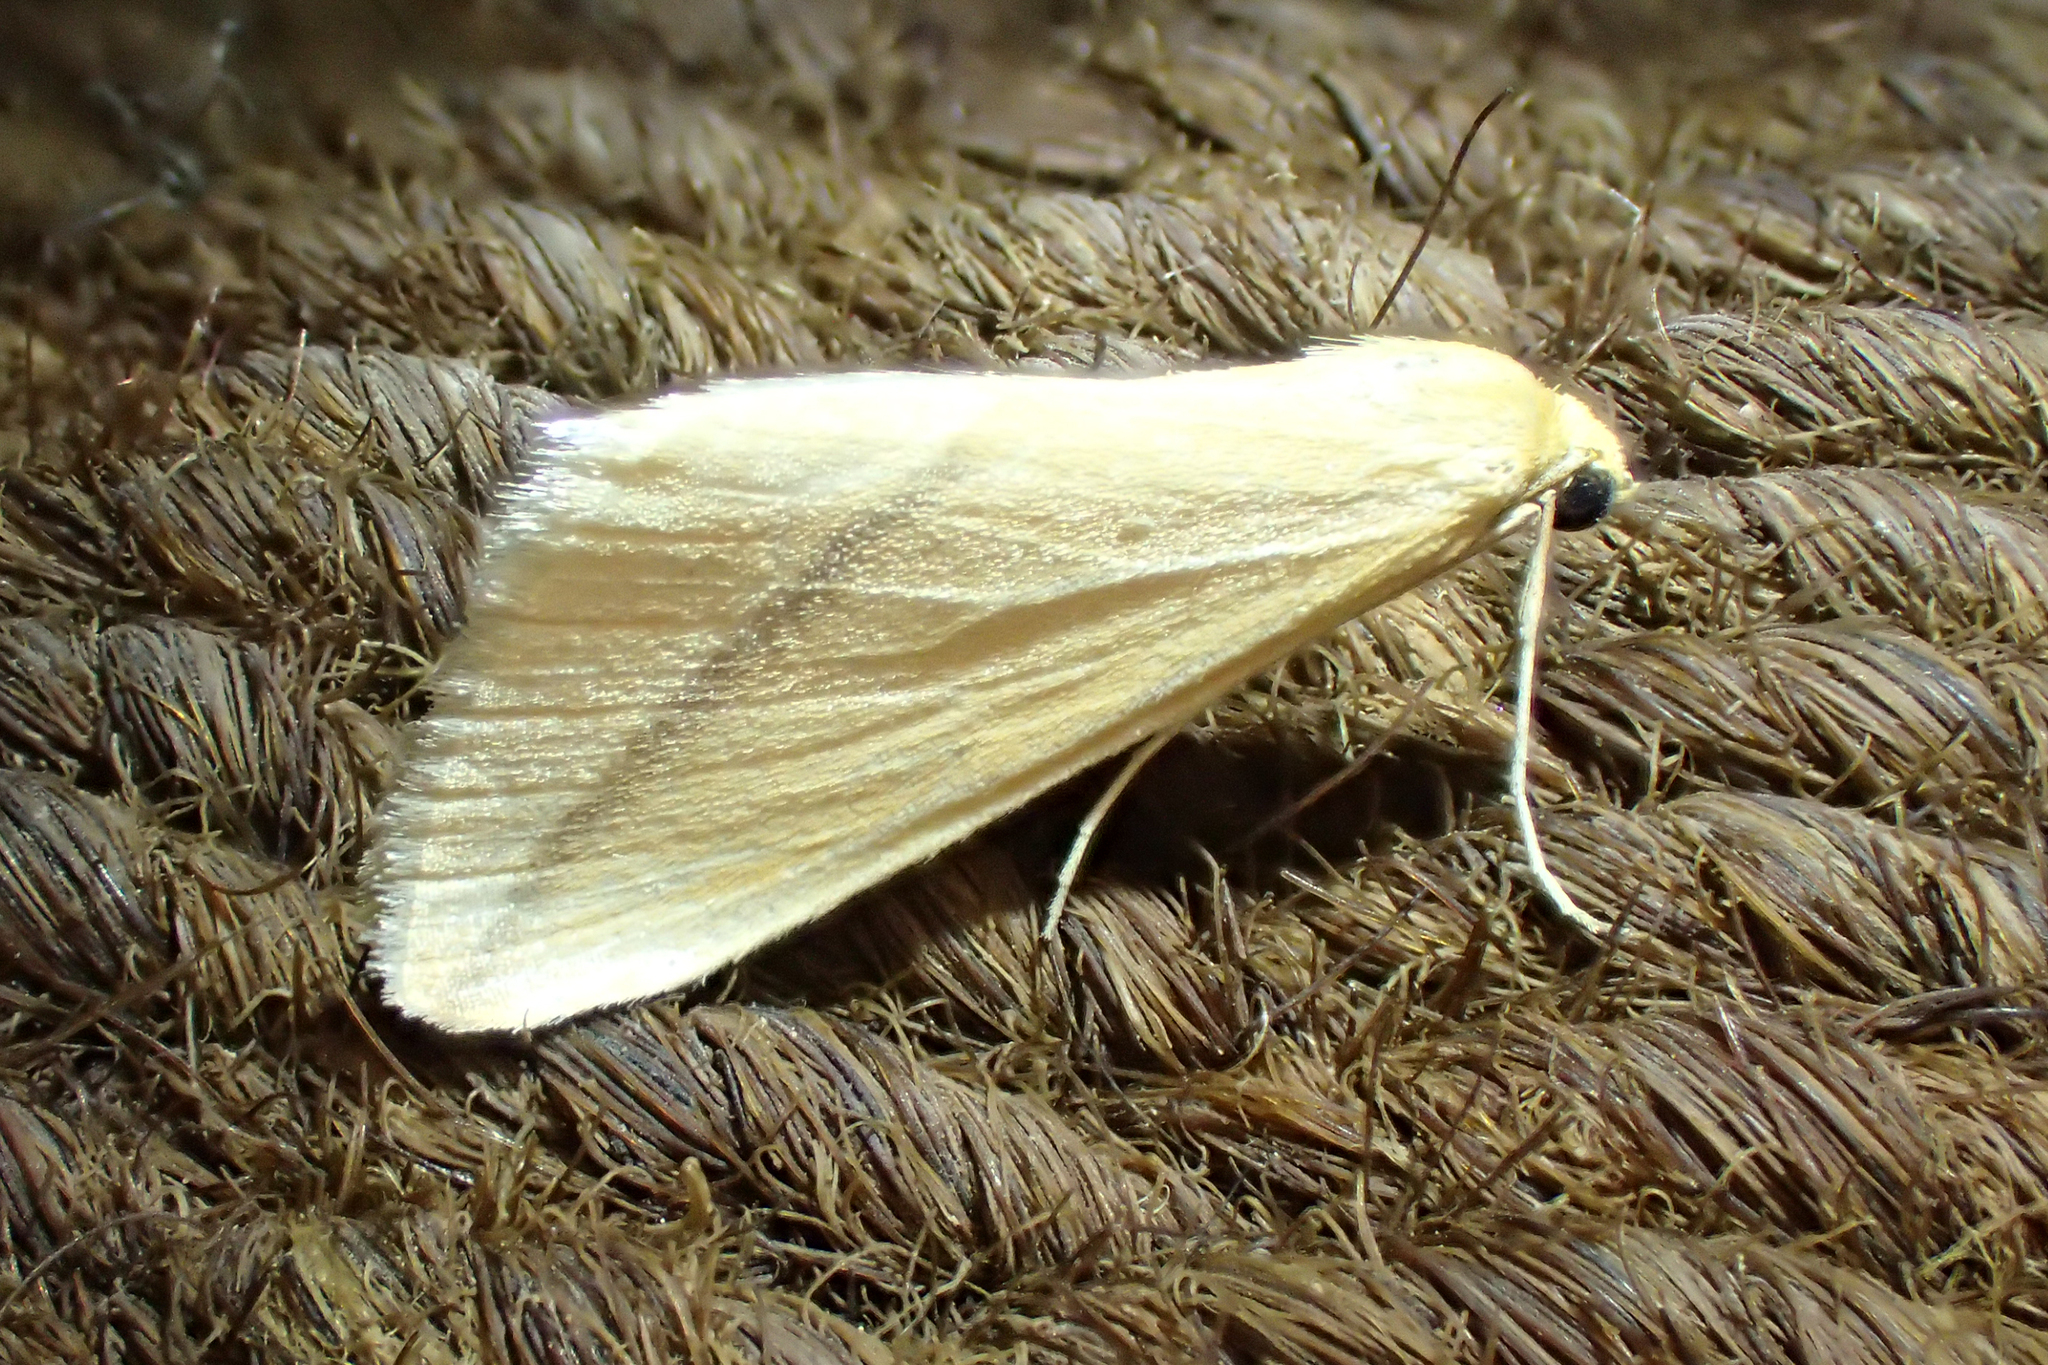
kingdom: Animalia
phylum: Arthropoda
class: Insecta
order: Lepidoptera
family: Geometridae
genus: Rhodometra
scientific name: Rhodometra sacraria
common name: Vestal
